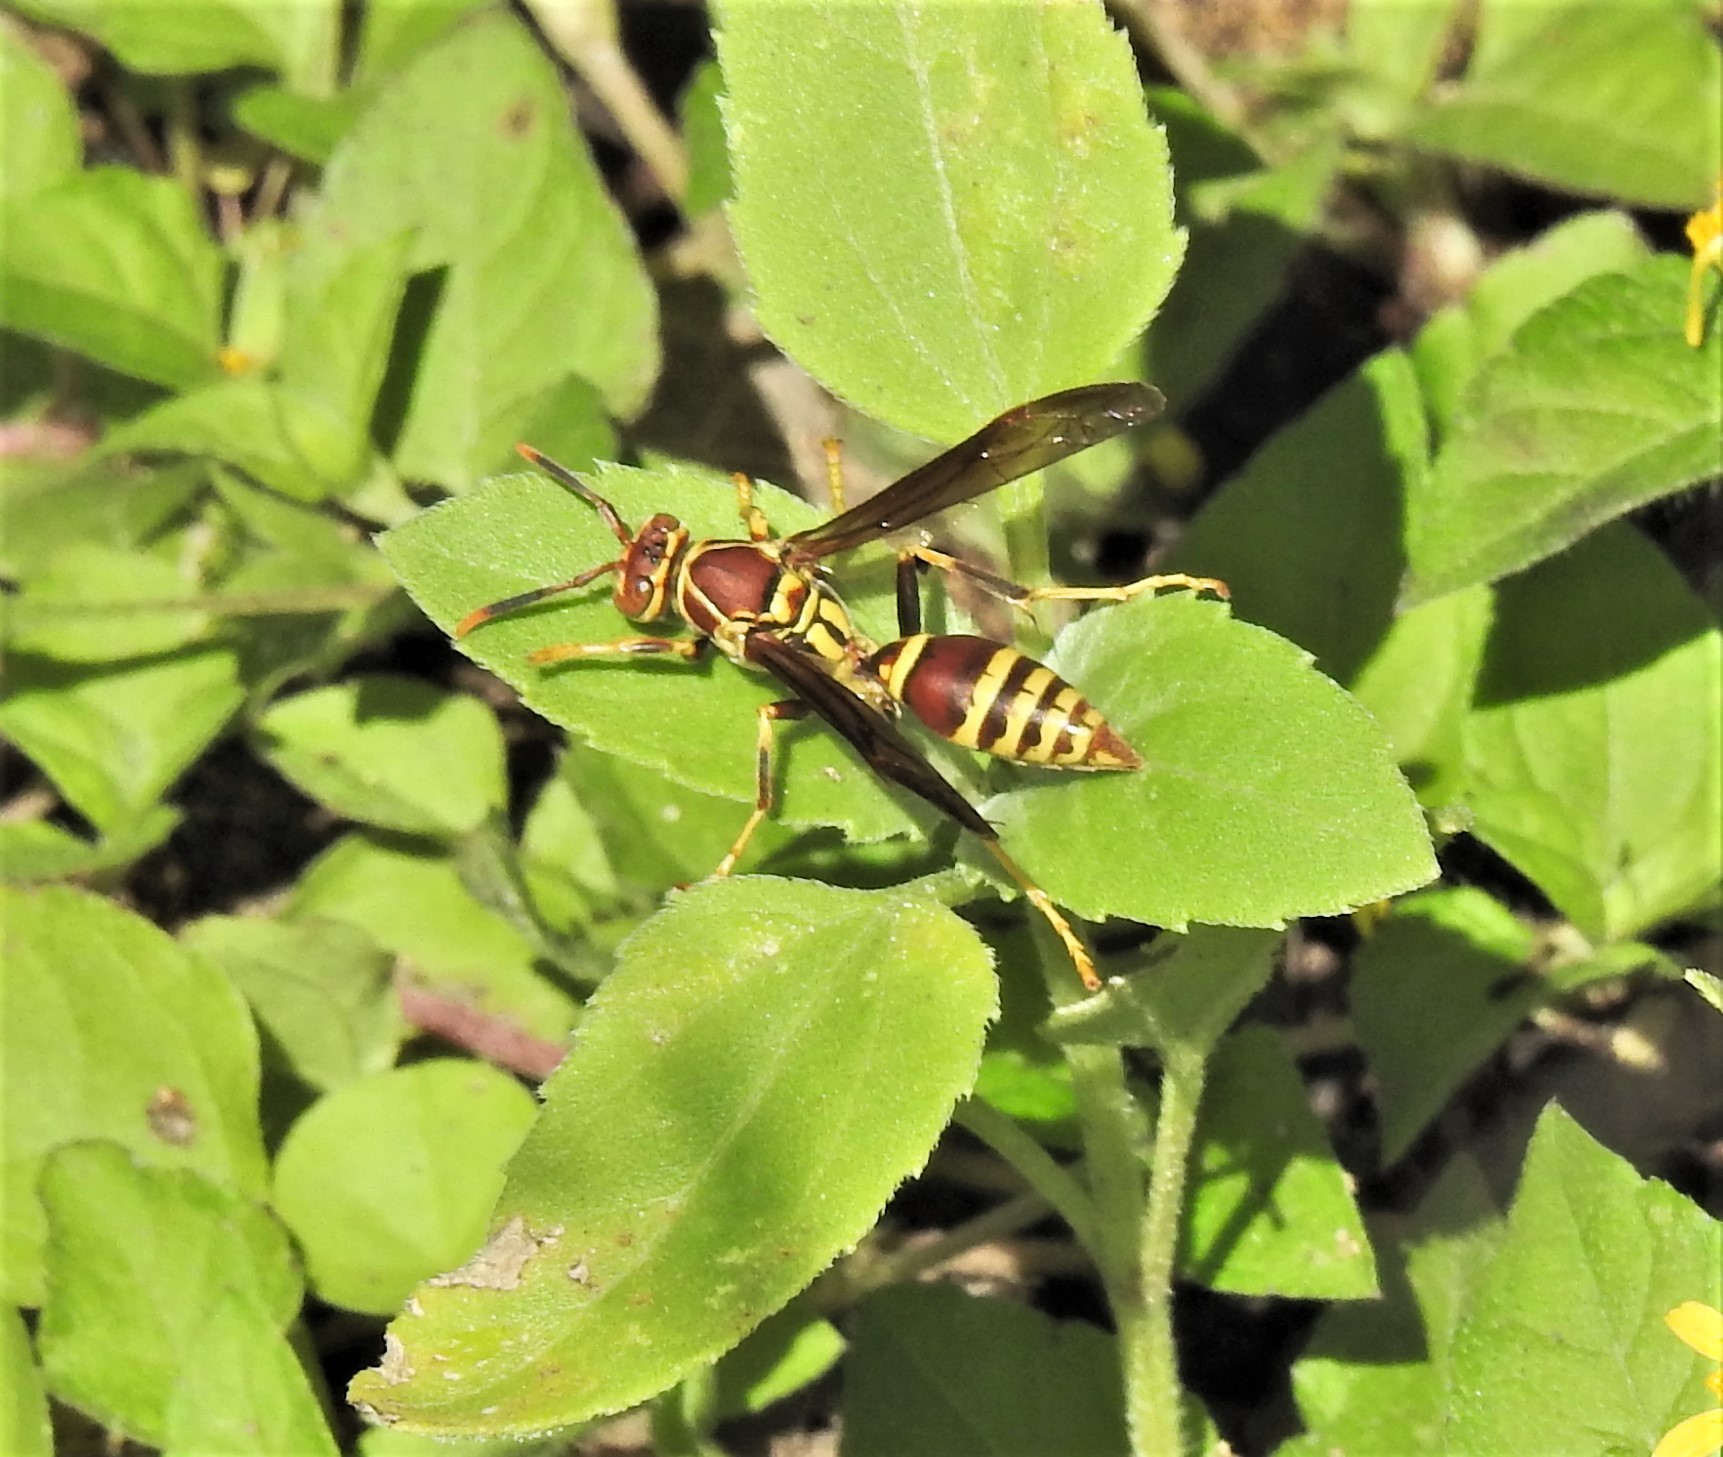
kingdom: Animalia
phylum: Arthropoda
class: Insecta
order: Hymenoptera
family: Eumenidae
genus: Polistes
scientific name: Polistes exclamans
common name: Paper wasp
